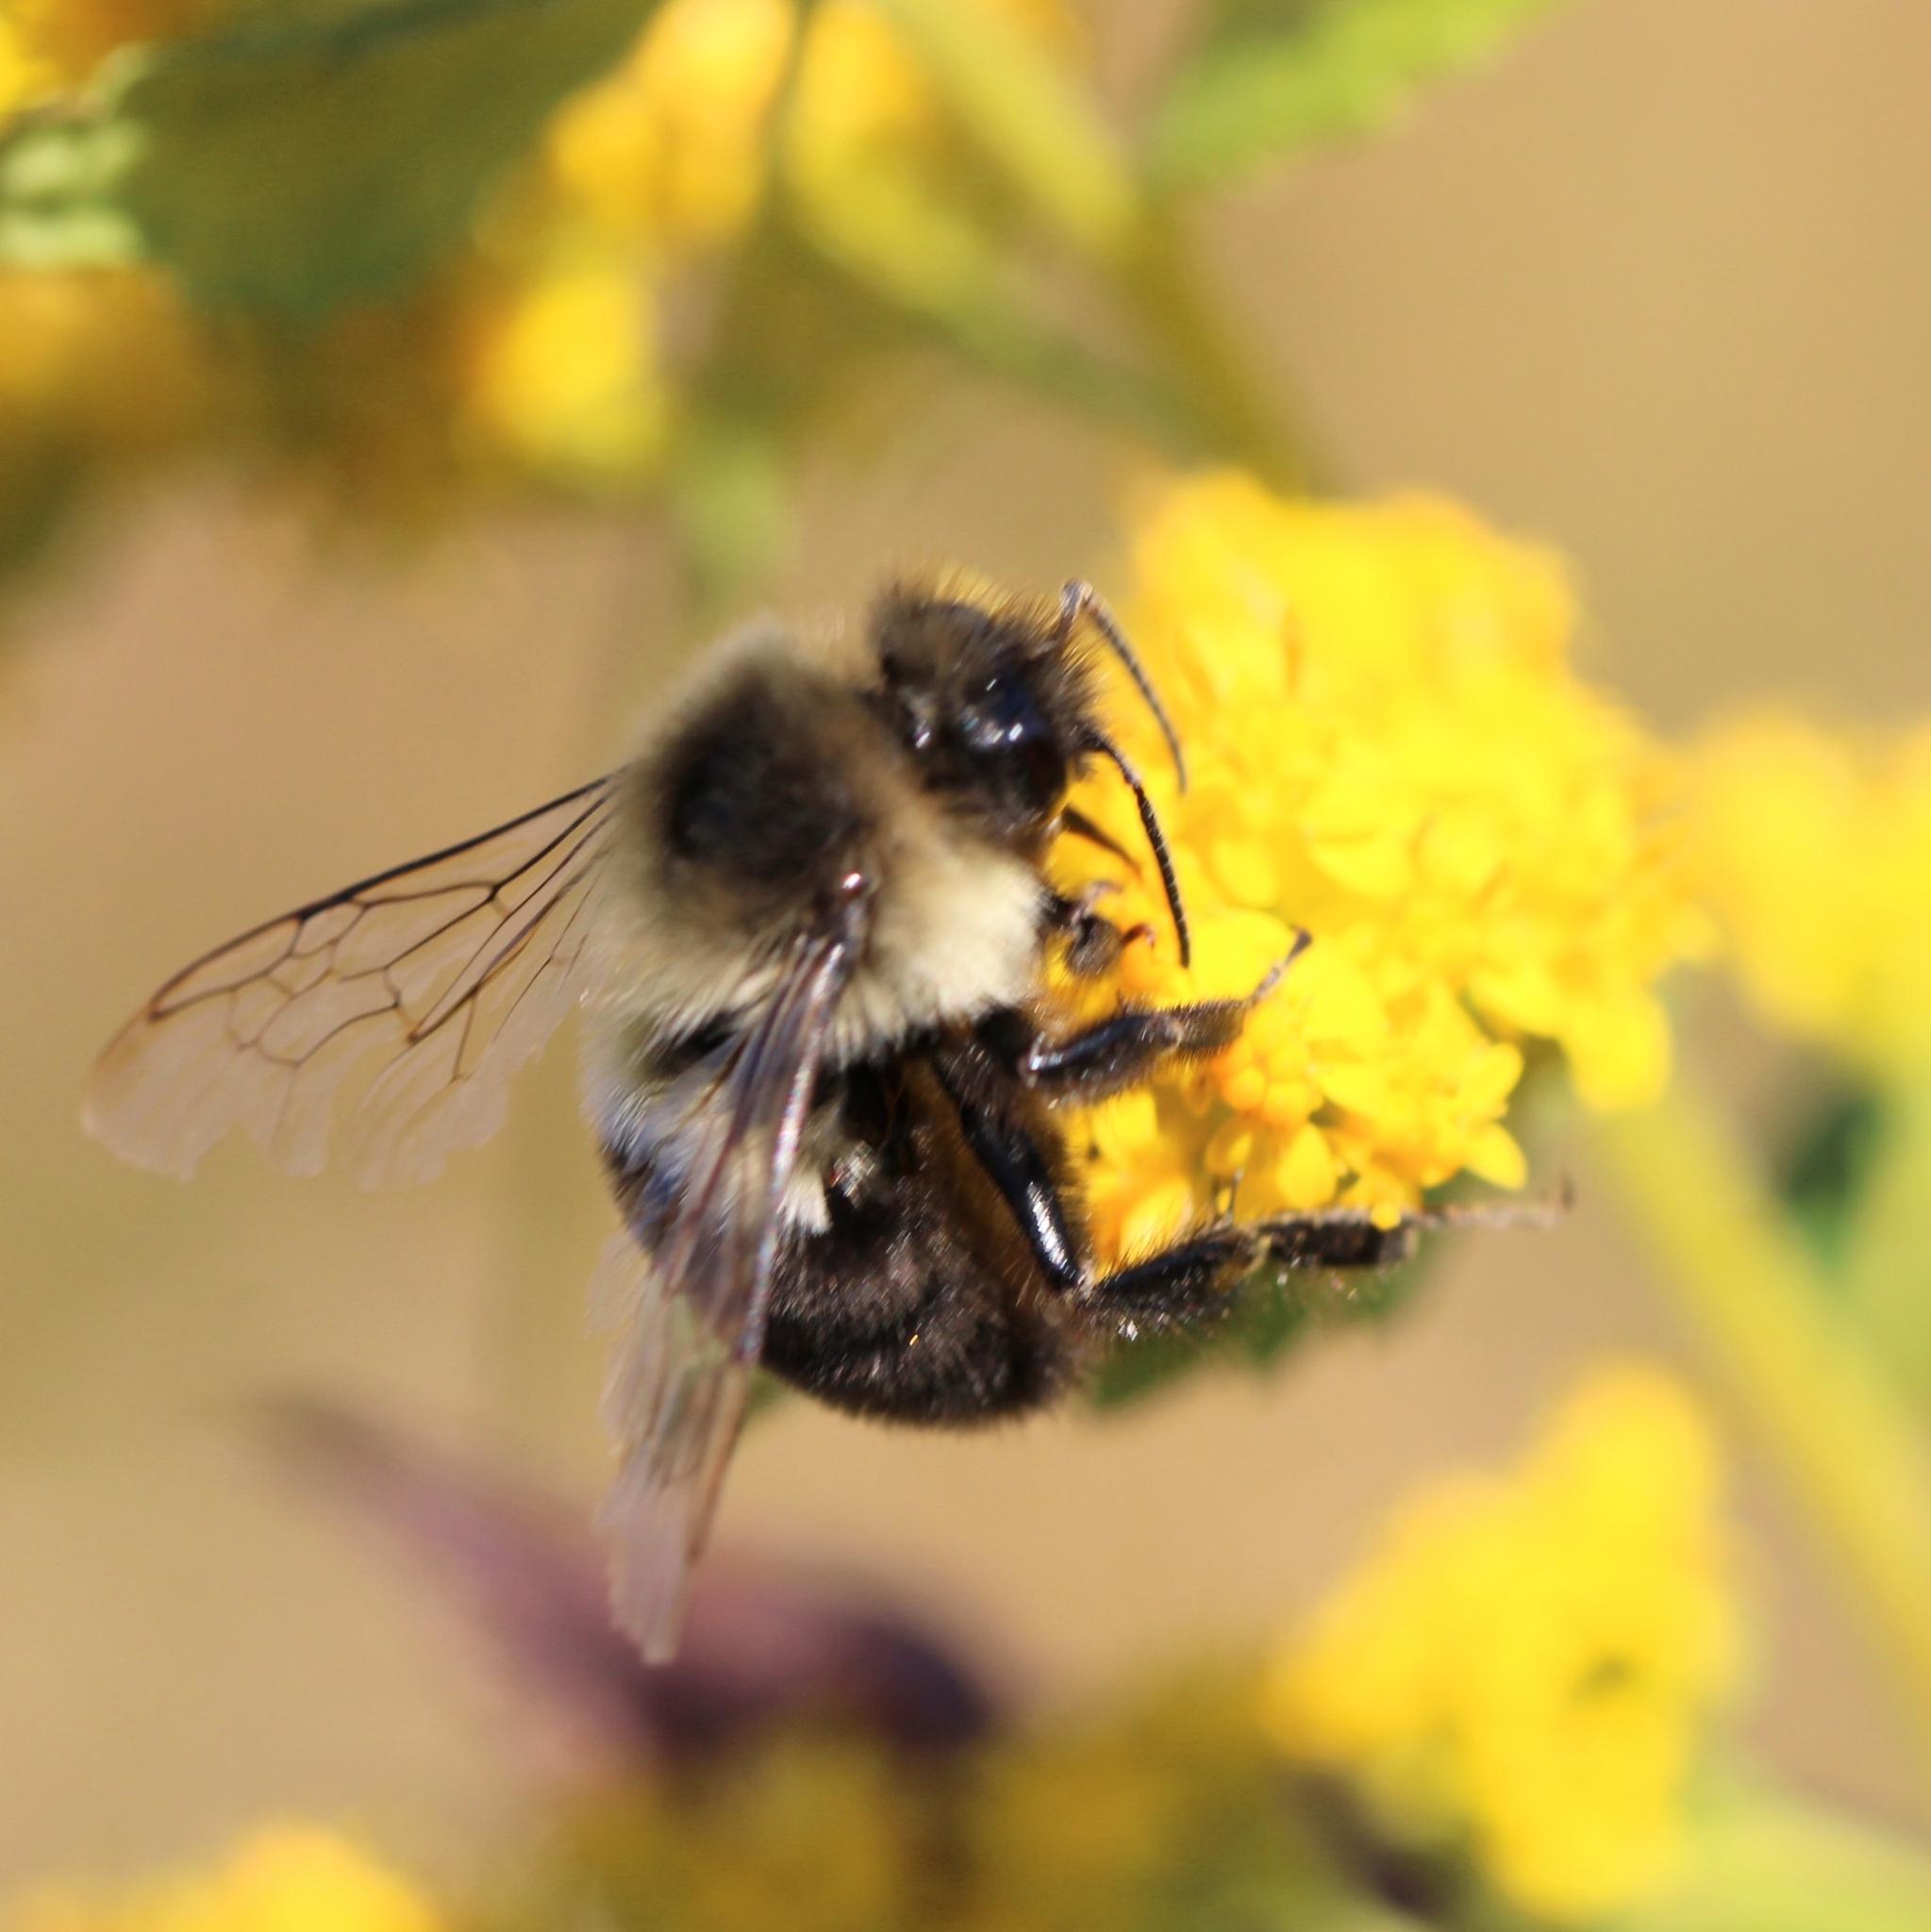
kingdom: Animalia
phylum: Arthropoda
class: Insecta
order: Hymenoptera
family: Apidae
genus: Bombus
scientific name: Bombus impatiens
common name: Common eastern bumble bee
